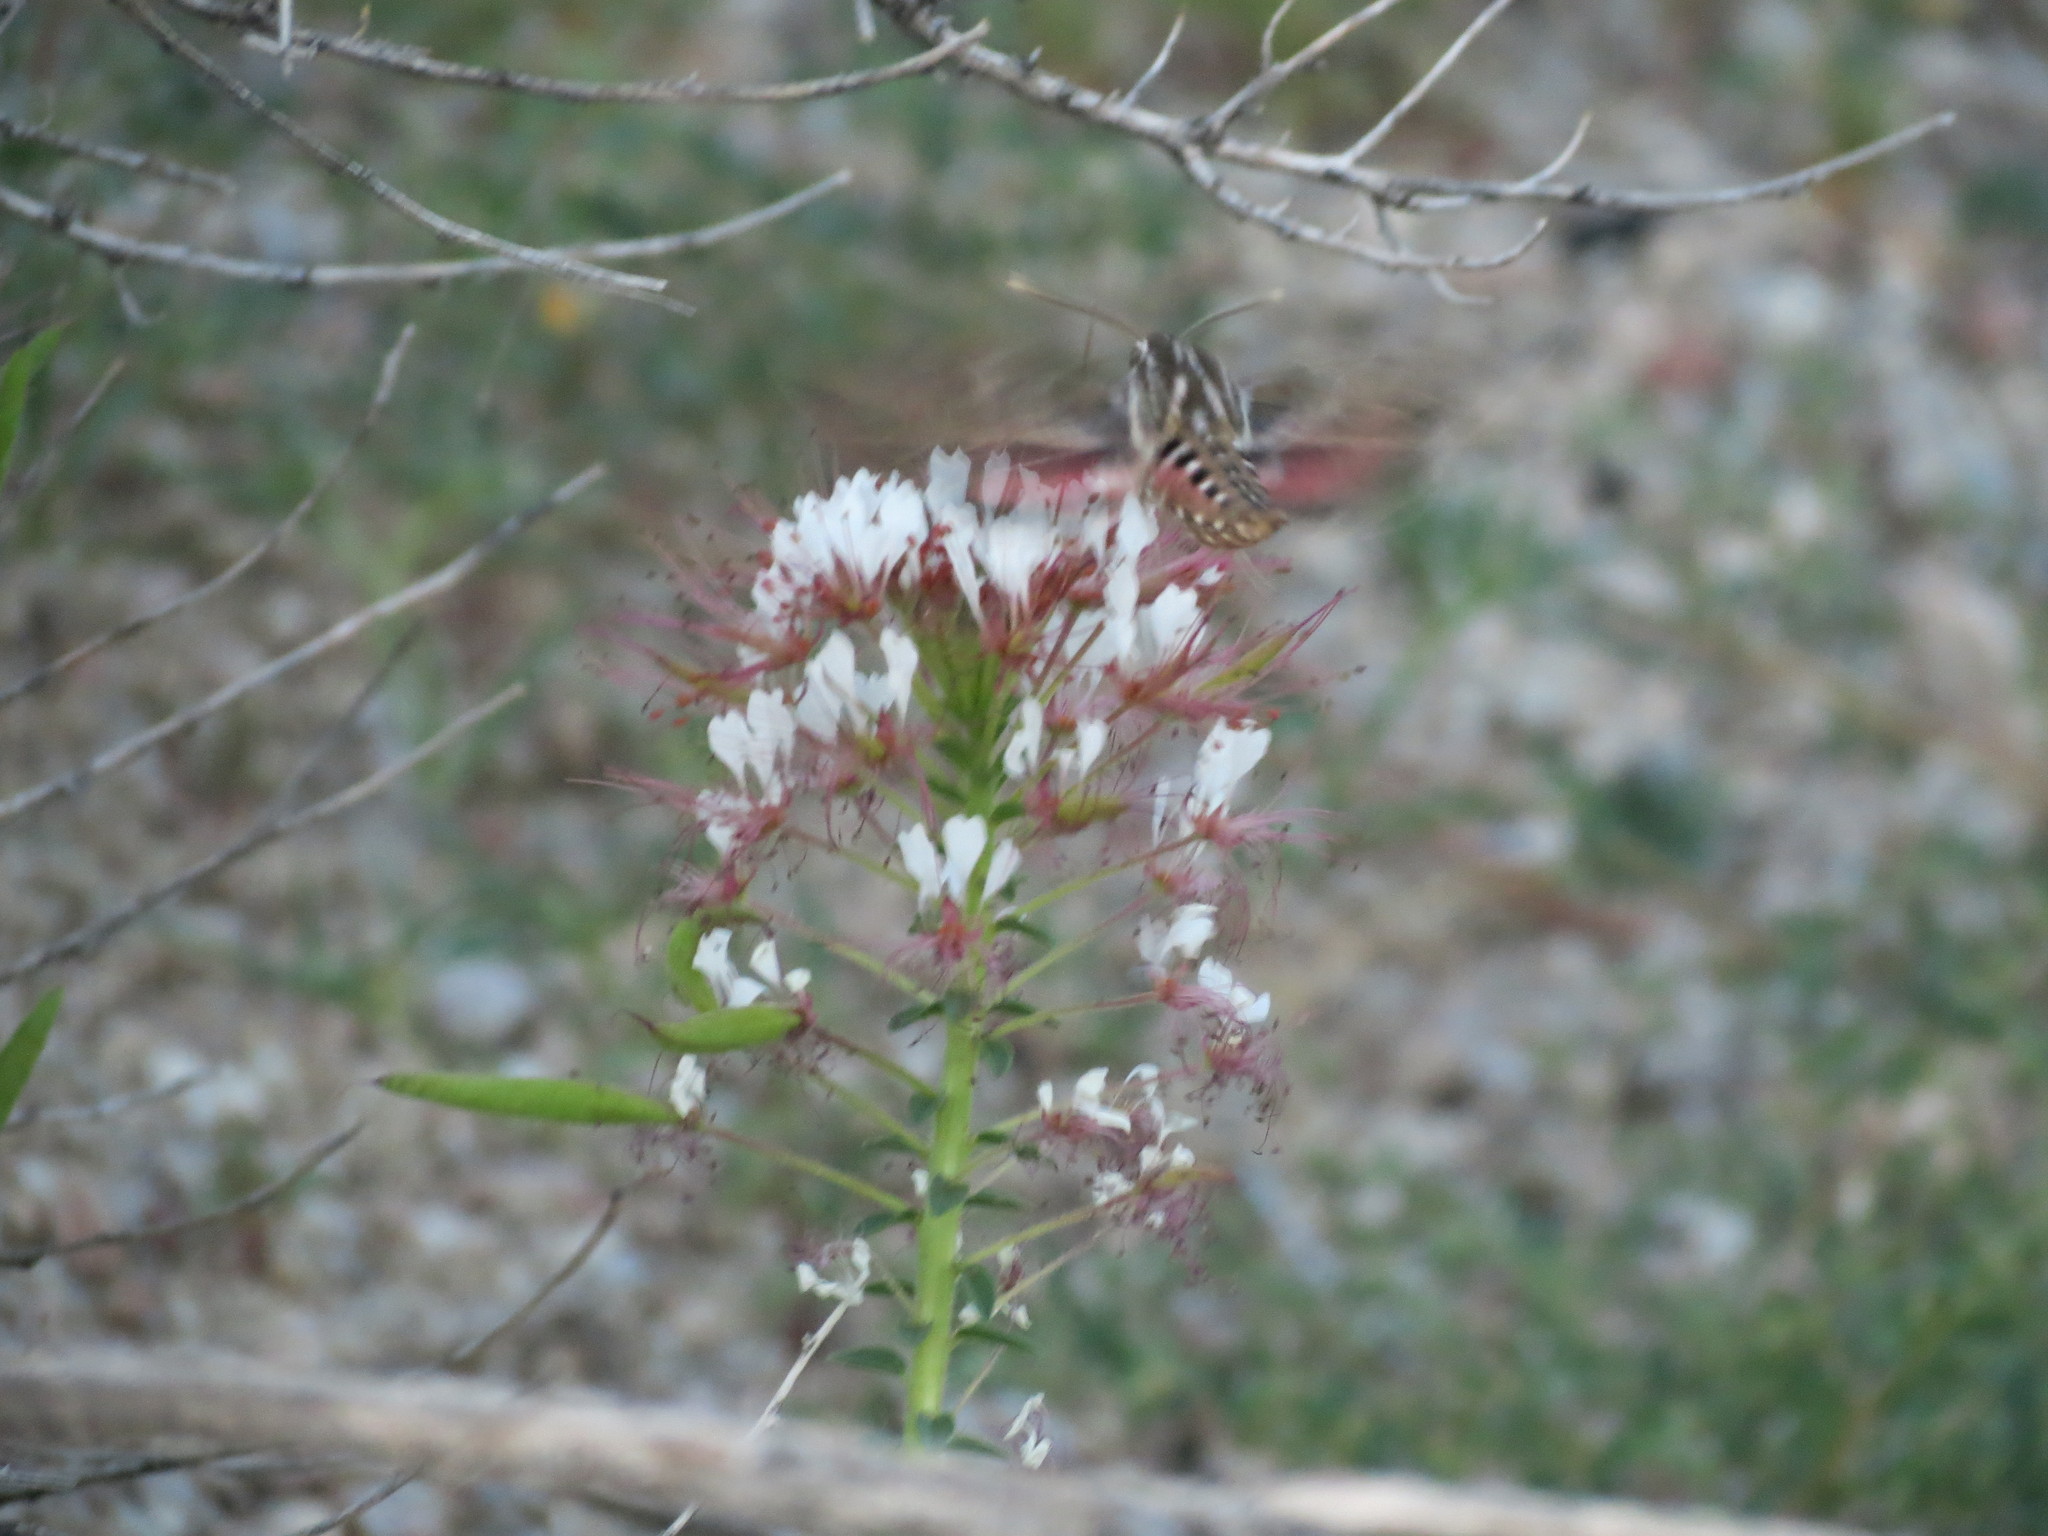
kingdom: Animalia
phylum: Arthropoda
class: Insecta
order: Lepidoptera
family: Sphingidae
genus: Hyles
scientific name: Hyles lineata
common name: White-lined sphinx
